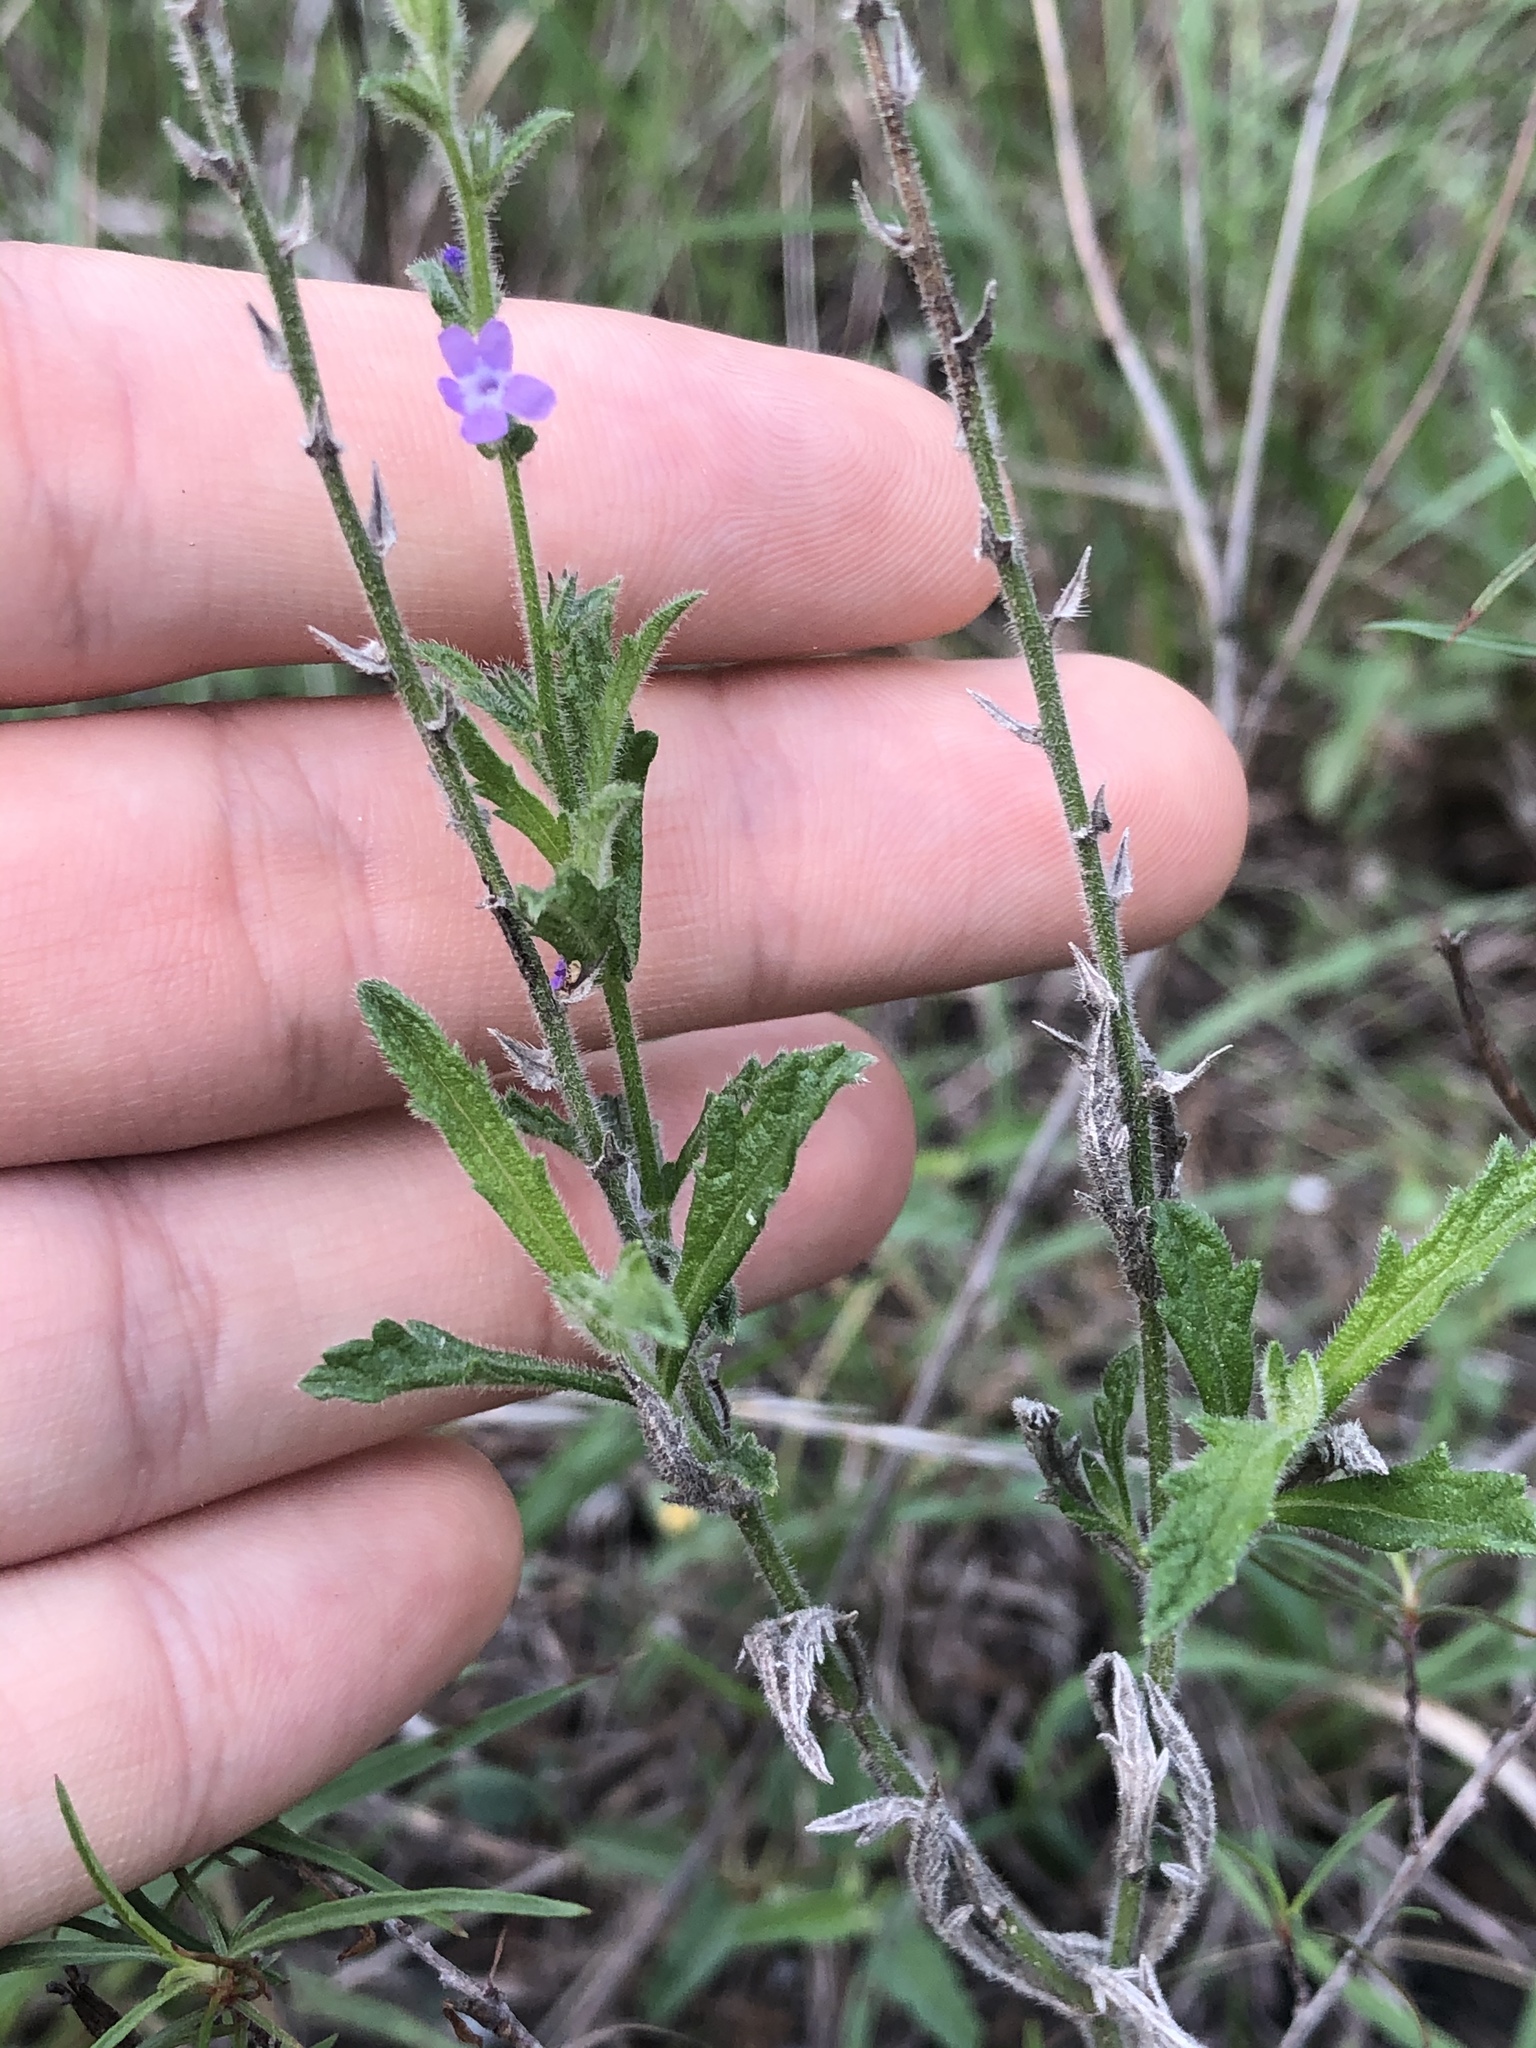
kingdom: Plantae
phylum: Tracheophyta
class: Magnoliopsida
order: Lamiales
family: Verbenaceae
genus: Verbena
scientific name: Verbena canescens
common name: Gray vervain
